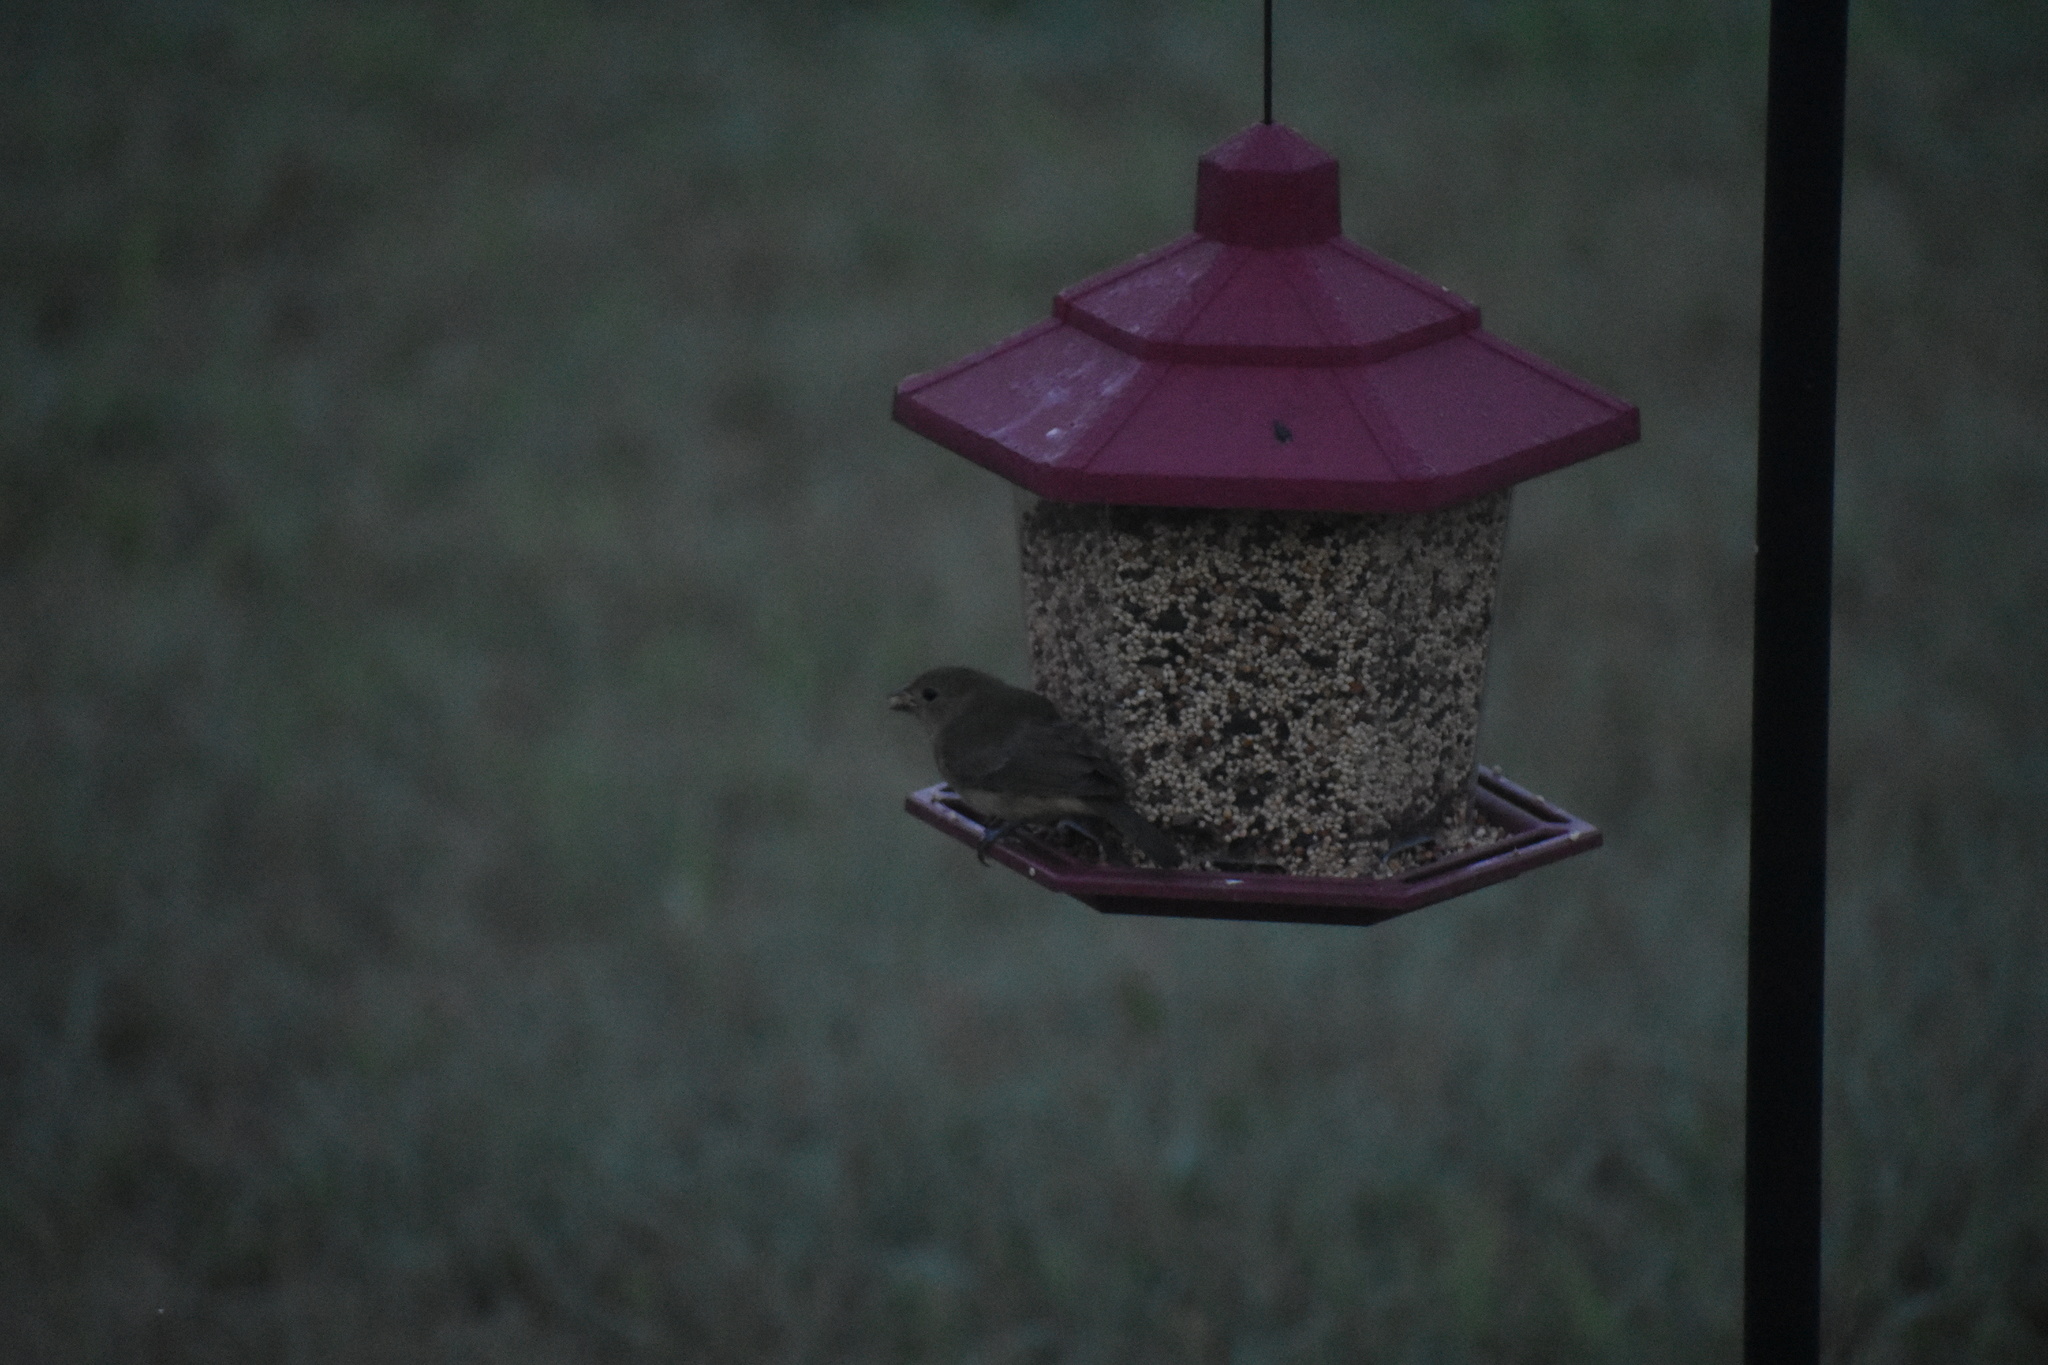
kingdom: Animalia
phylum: Chordata
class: Aves
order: Passeriformes
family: Cardinalidae
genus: Passerina
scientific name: Passerina ciris
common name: Painted bunting
